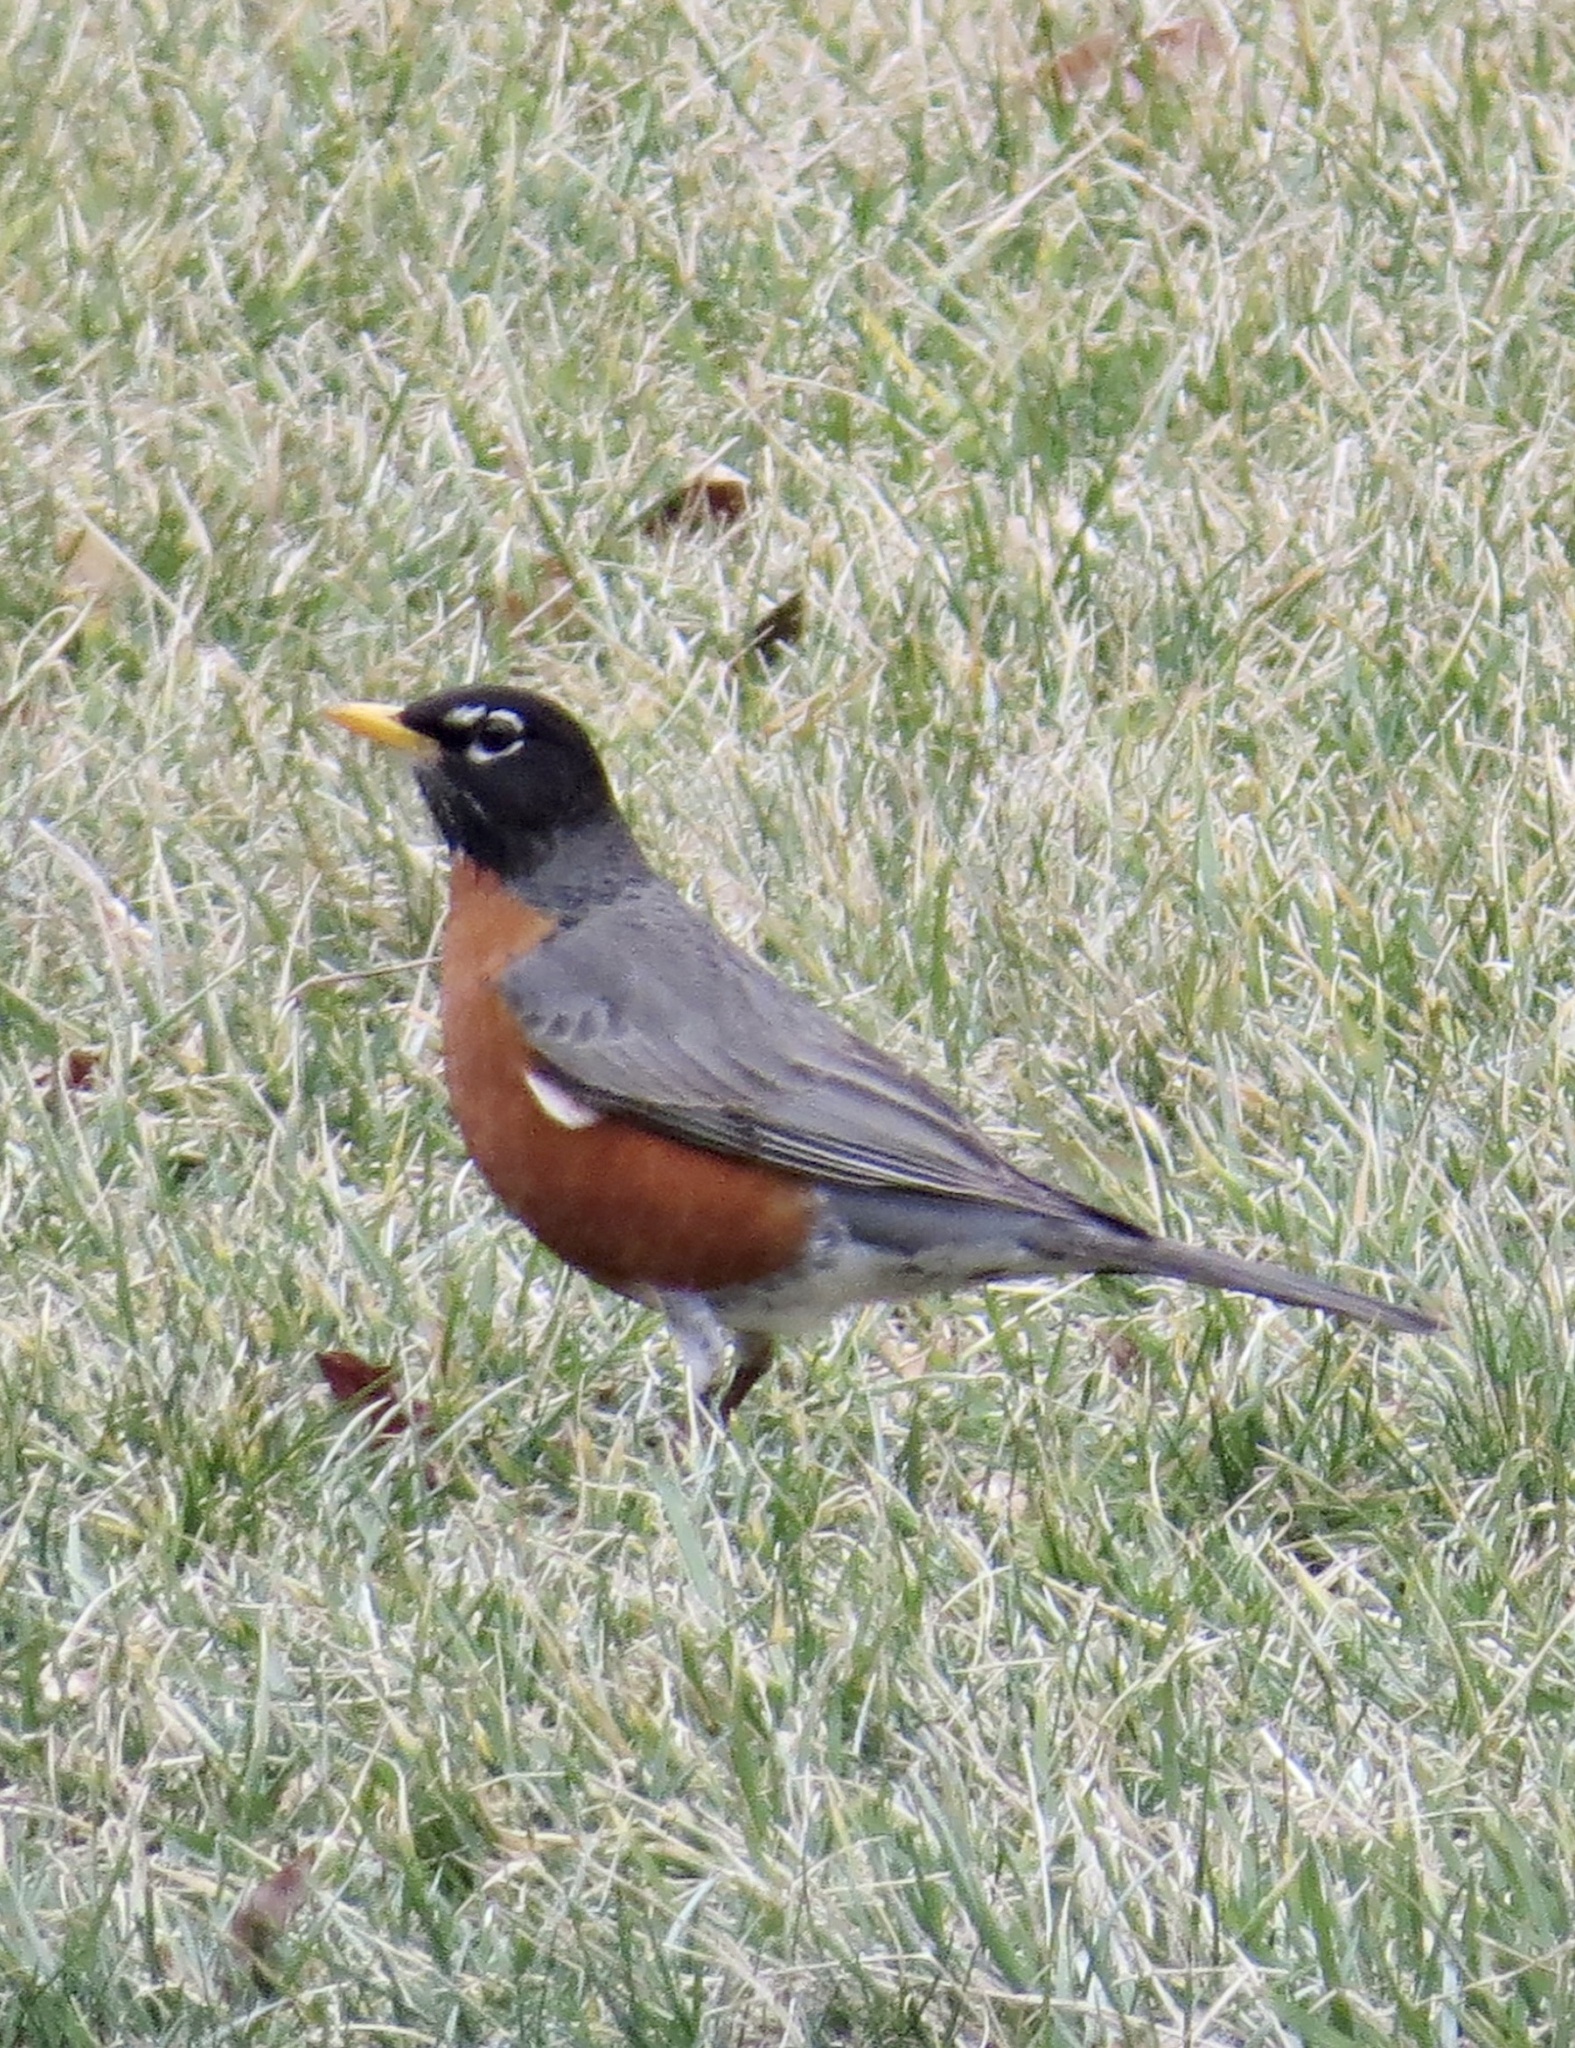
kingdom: Animalia
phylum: Chordata
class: Aves
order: Passeriformes
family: Turdidae
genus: Turdus
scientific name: Turdus migratorius
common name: American robin
